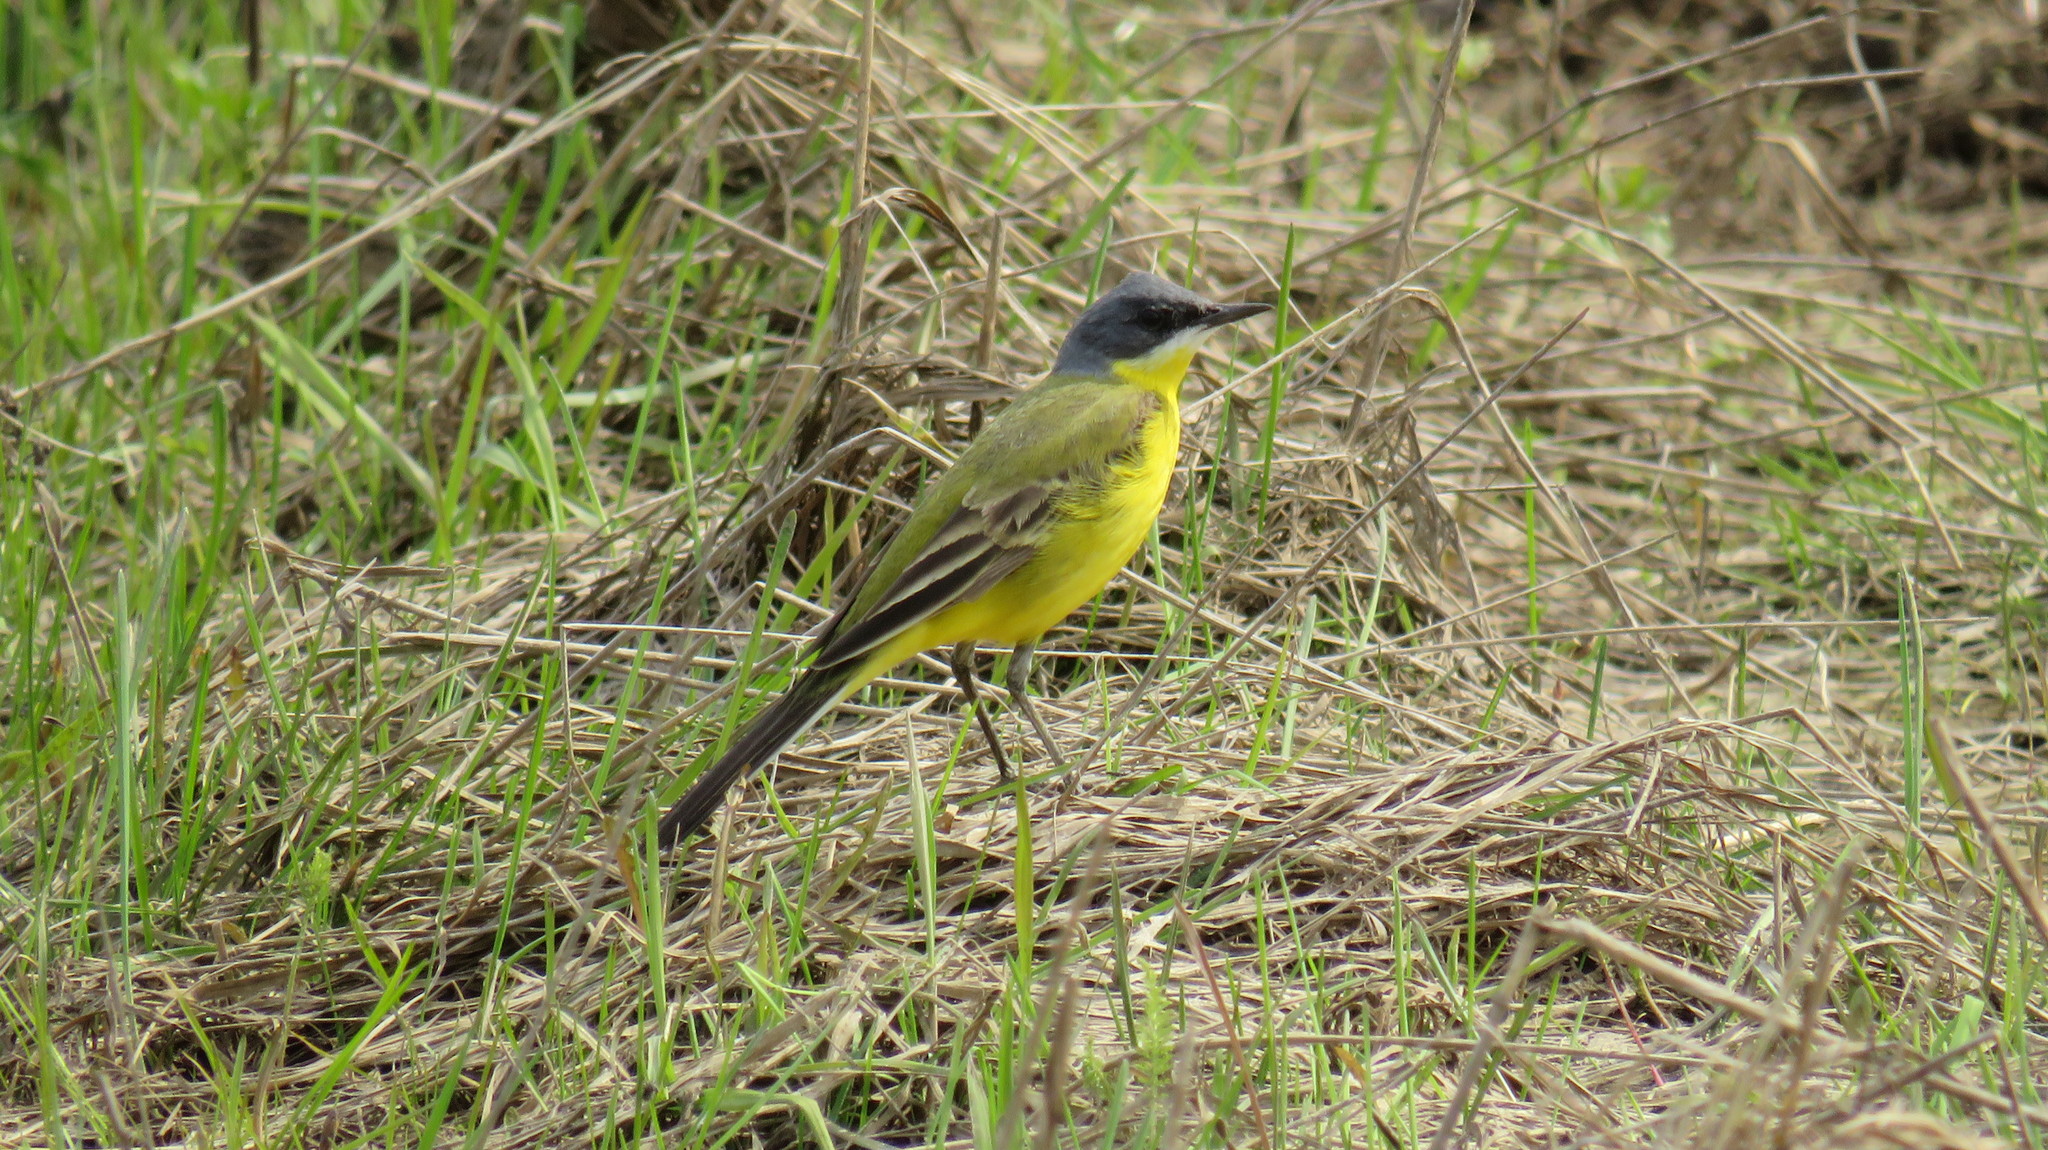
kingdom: Animalia
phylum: Chordata
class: Aves
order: Passeriformes
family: Motacillidae
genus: Motacilla
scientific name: Motacilla flava
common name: Western yellow wagtail
